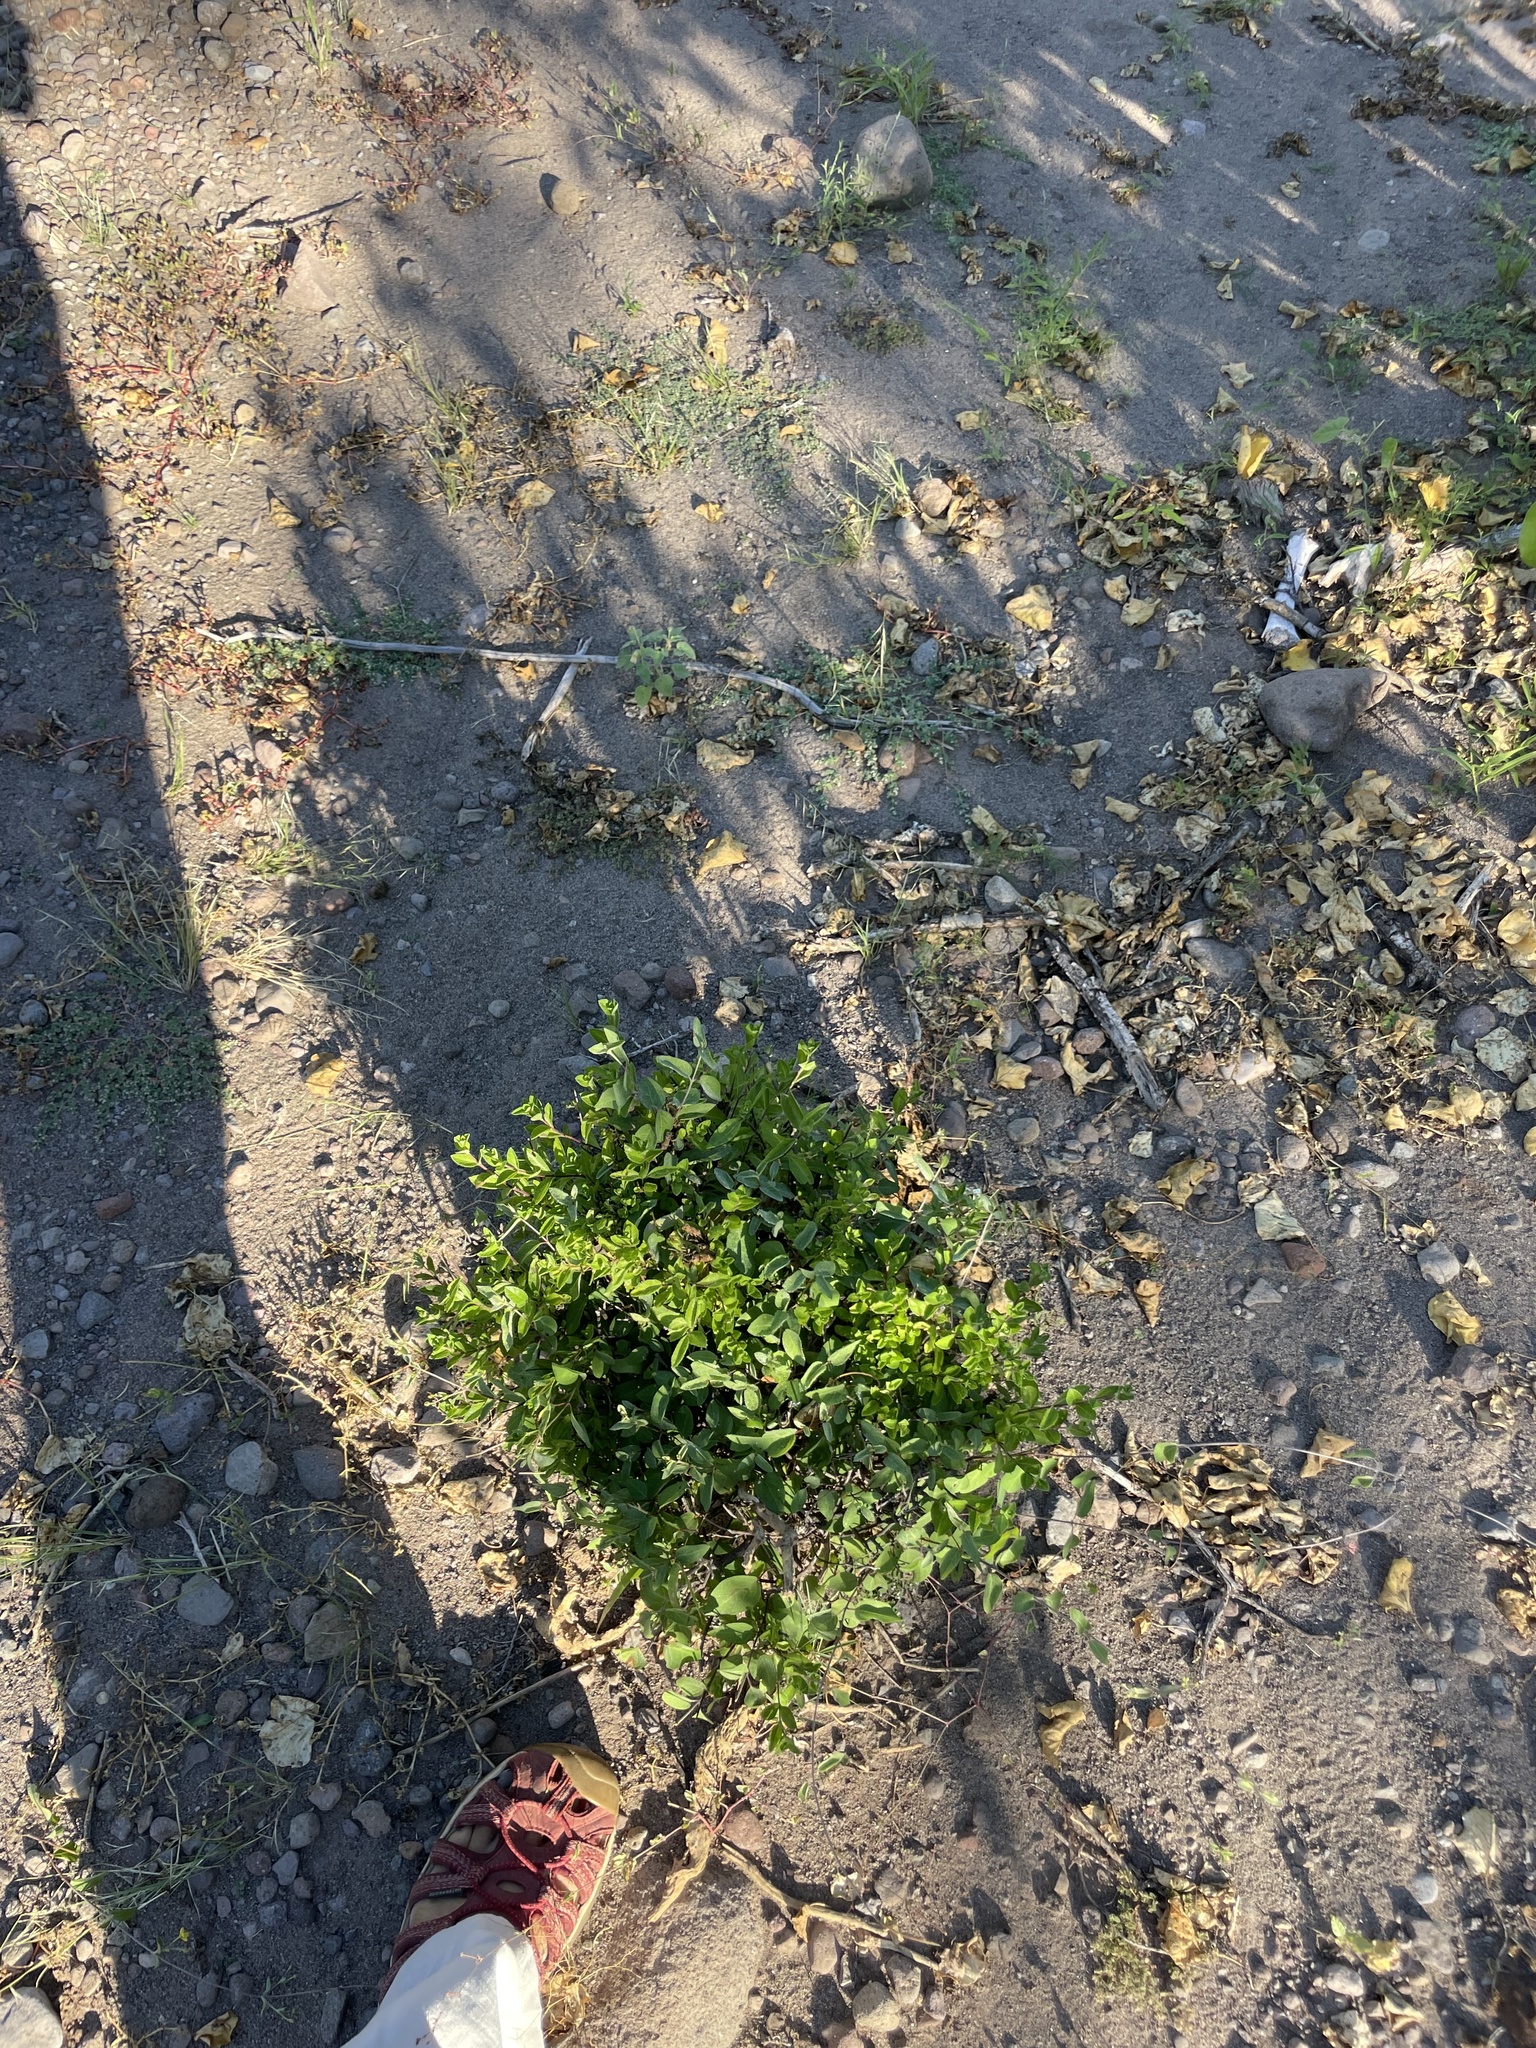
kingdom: Plantae
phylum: Tracheophyta
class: Magnoliopsida
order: Lamiales
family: Verbenaceae
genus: Lippia
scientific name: Lippia alba
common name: Bushy matgrass
